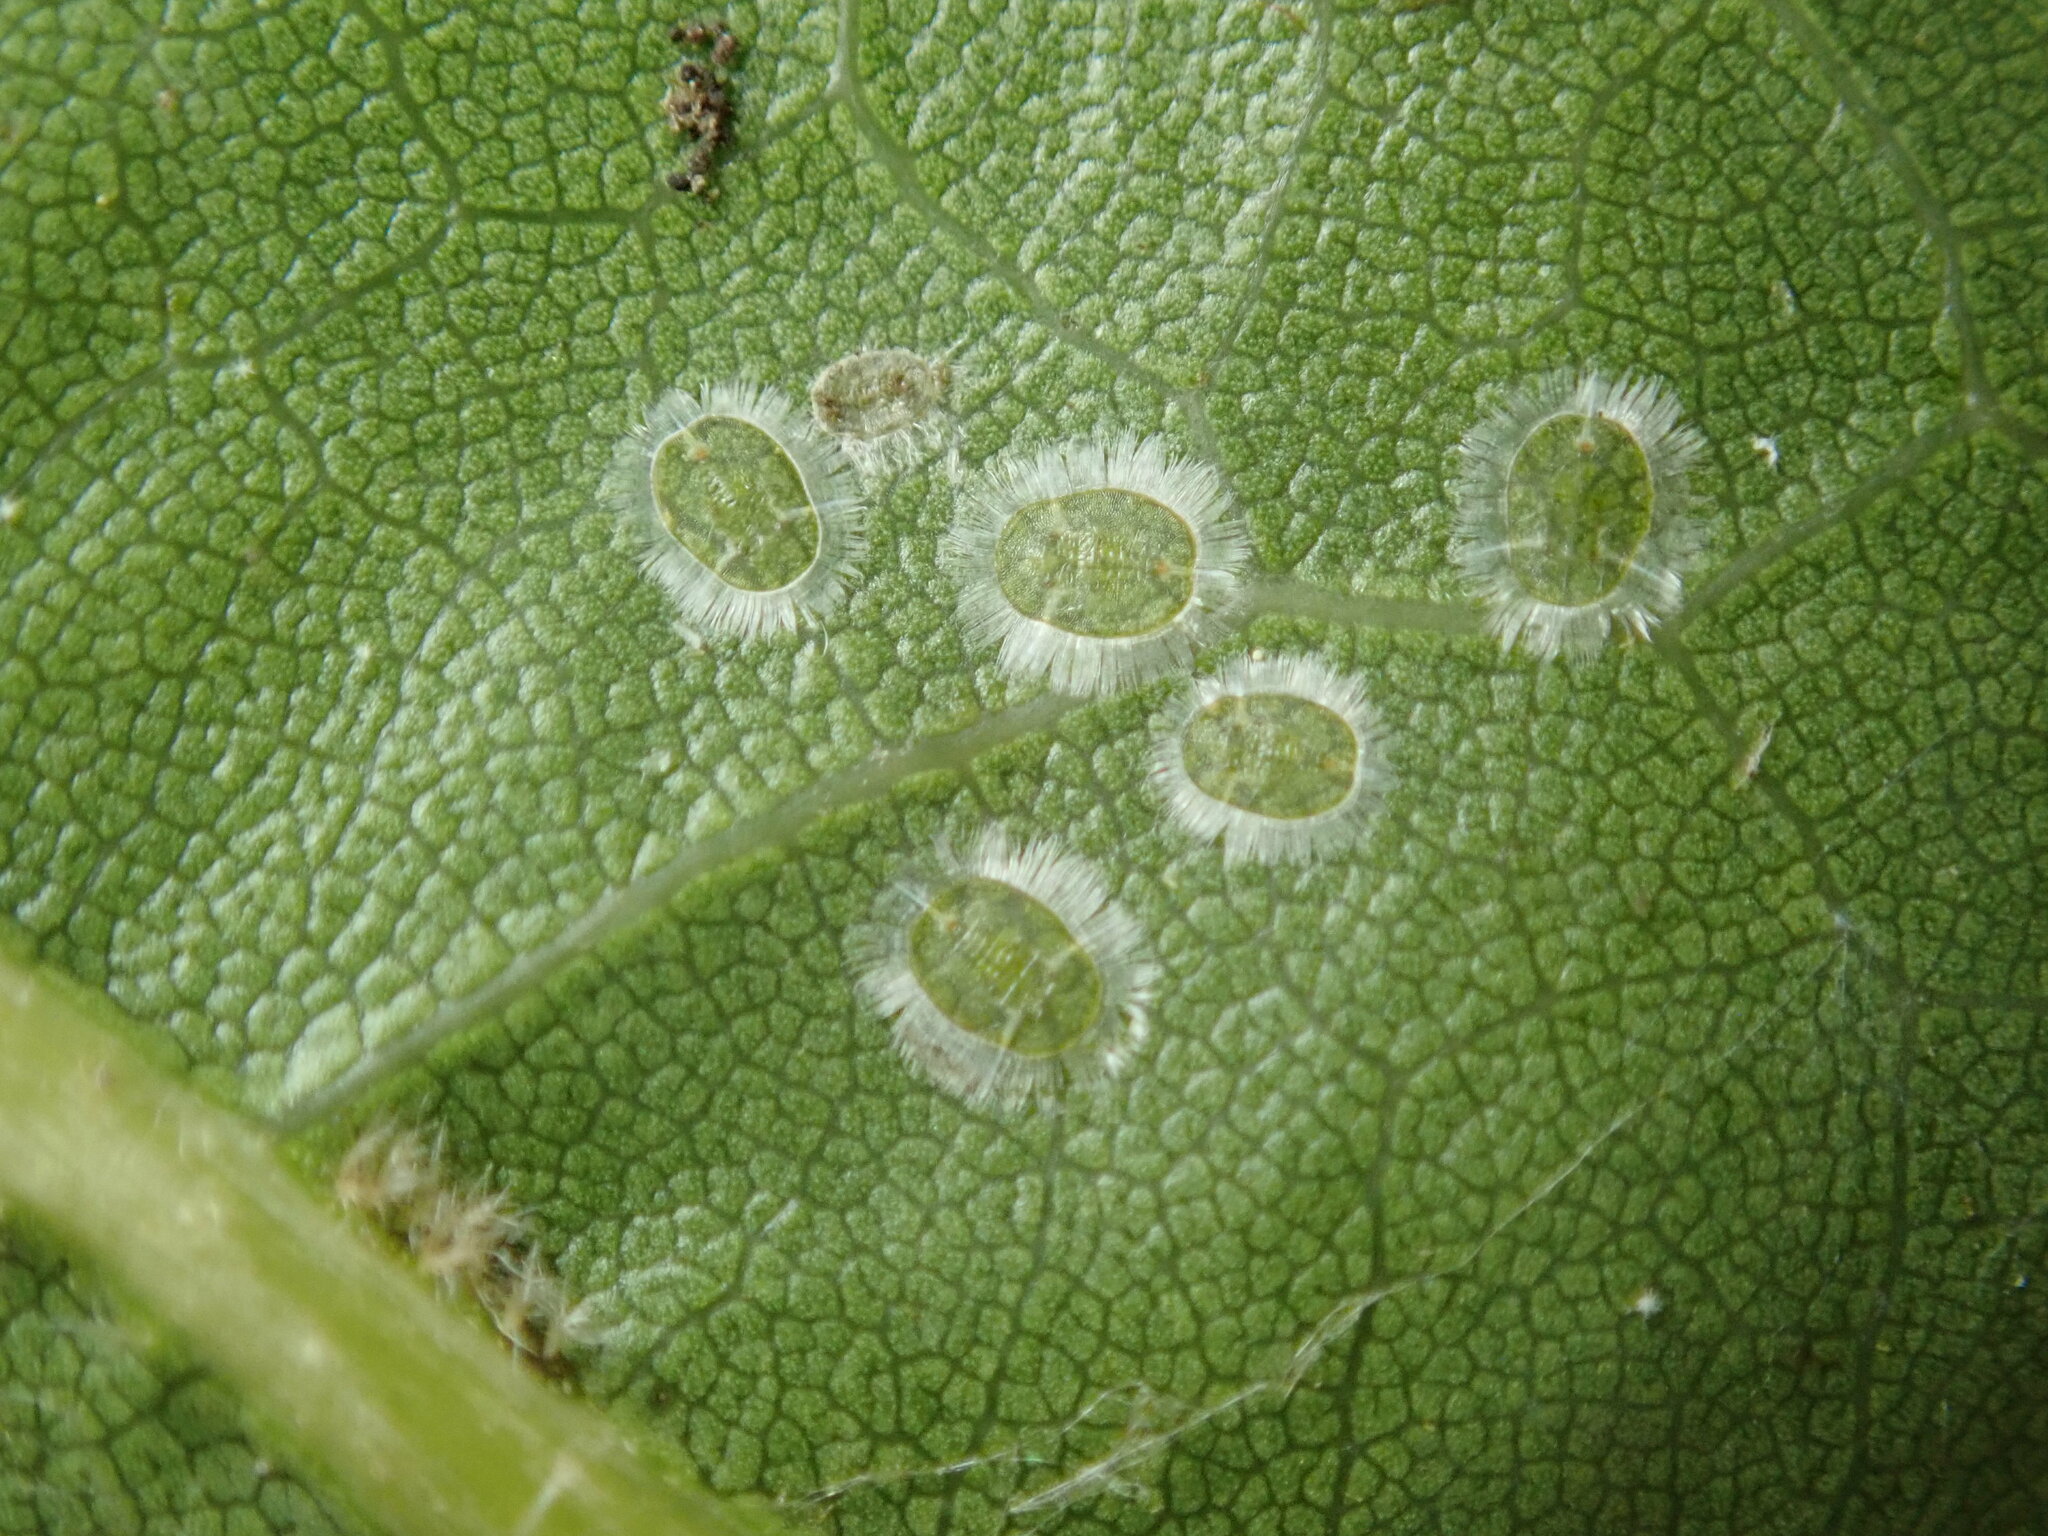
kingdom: Animalia
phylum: Arthropoda
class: Insecta
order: Hemiptera
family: Aleyrodidae
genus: Trialeurodes
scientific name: Trialeurodes drewsi
